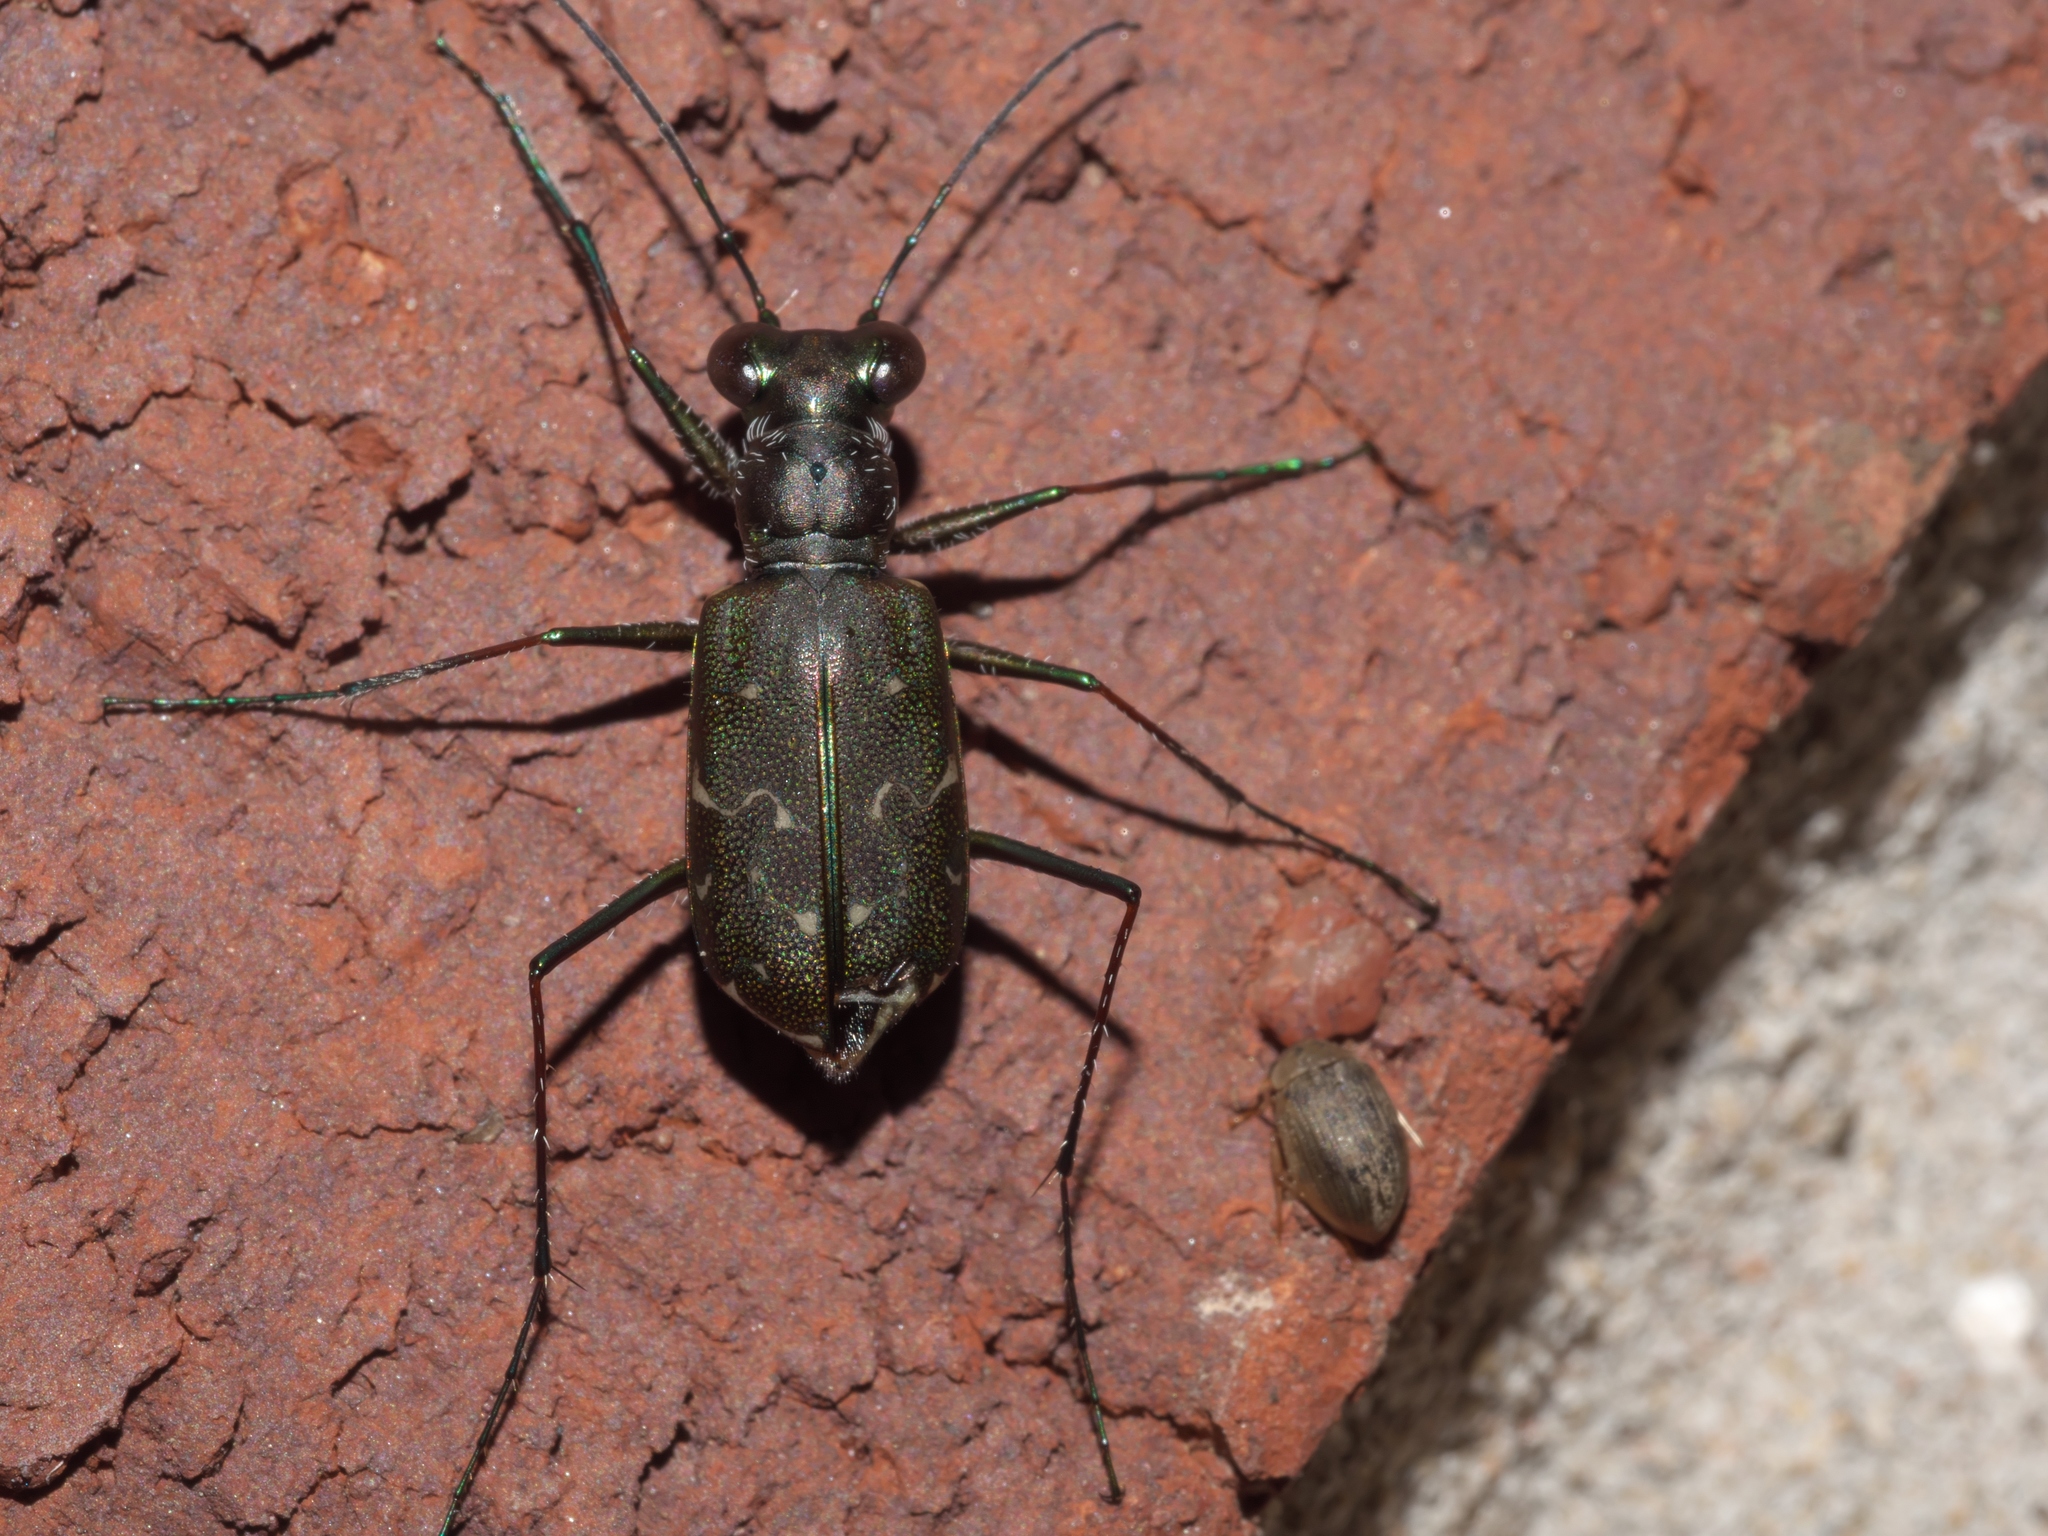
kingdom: Animalia
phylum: Arthropoda
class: Insecta
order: Coleoptera
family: Carabidae
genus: Cicindela
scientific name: Cicindela trifasciata
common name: Mudflat tiger beetle
